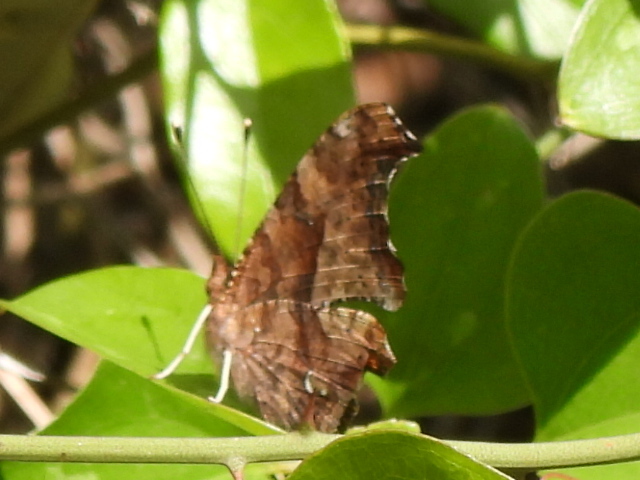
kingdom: Animalia
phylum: Arthropoda
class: Insecta
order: Lepidoptera
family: Nymphalidae
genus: Polygonia
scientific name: Polygonia interrogationis
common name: Question mark
